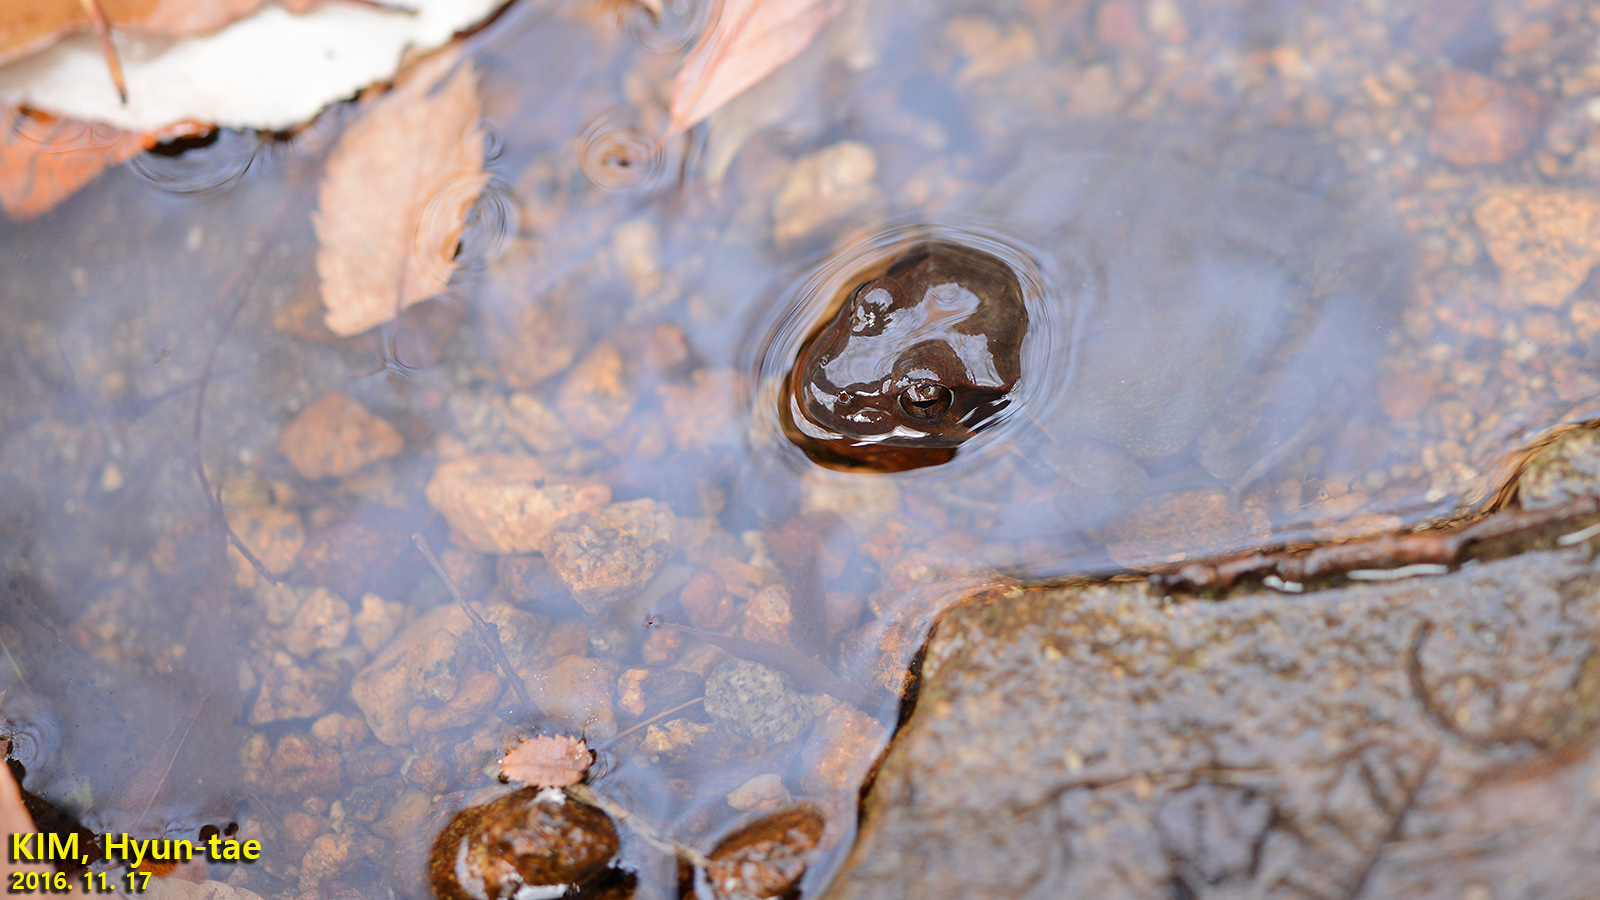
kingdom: Animalia
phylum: Chordata
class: Amphibia
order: Anura
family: Ranidae
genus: Rana
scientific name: Rana uenoi
